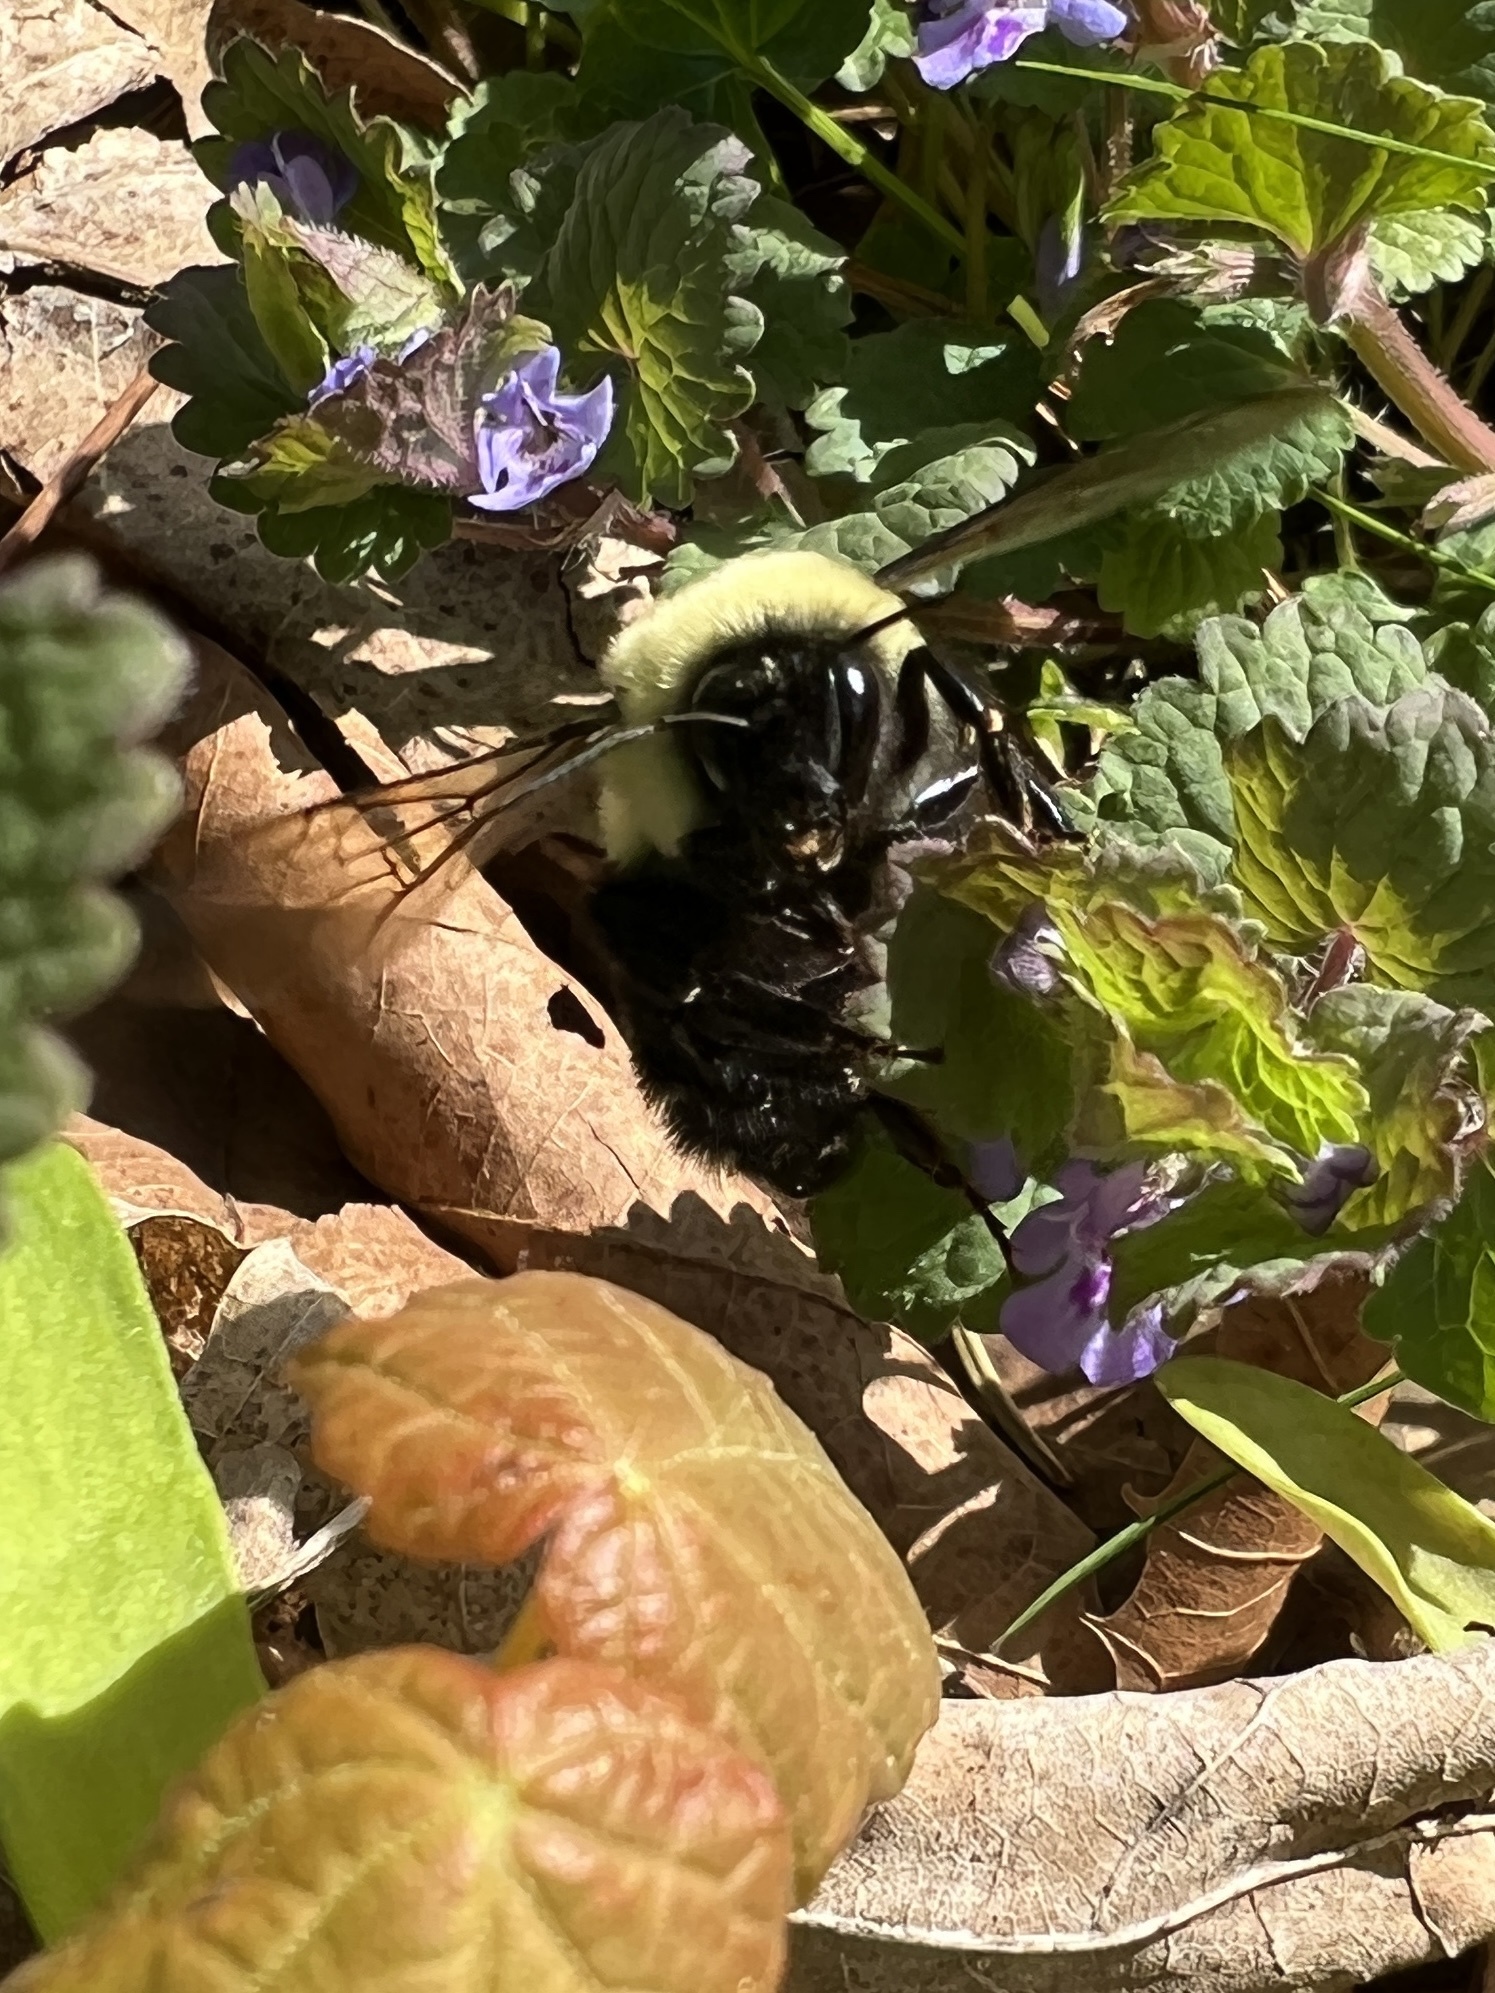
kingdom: Animalia
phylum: Arthropoda
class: Insecta
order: Hymenoptera
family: Apidae
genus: Bombus
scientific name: Bombus impatiens
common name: Common eastern bumble bee
